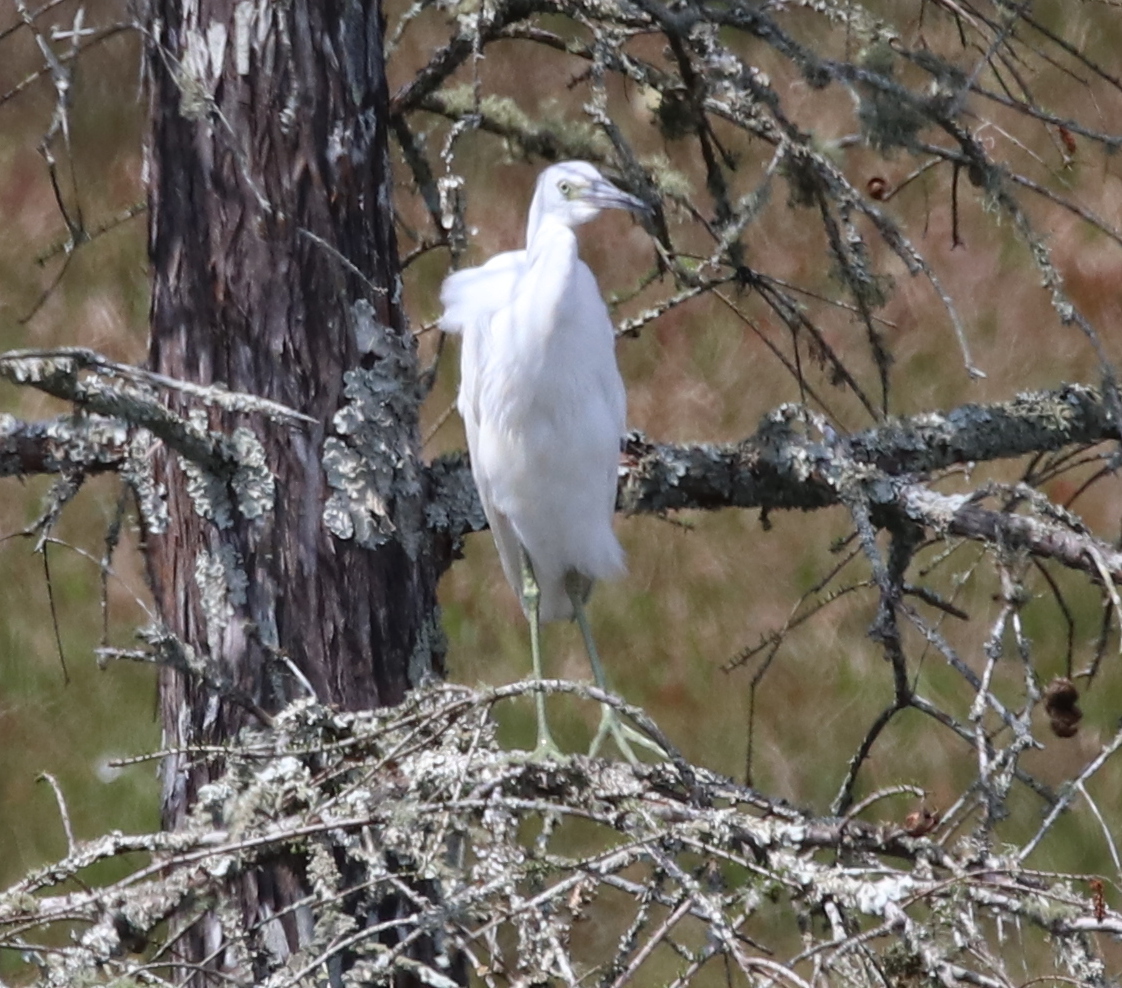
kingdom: Animalia
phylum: Chordata
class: Aves
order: Pelecaniformes
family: Ardeidae
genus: Egretta
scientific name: Egretta caerulea
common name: Little blue heron
